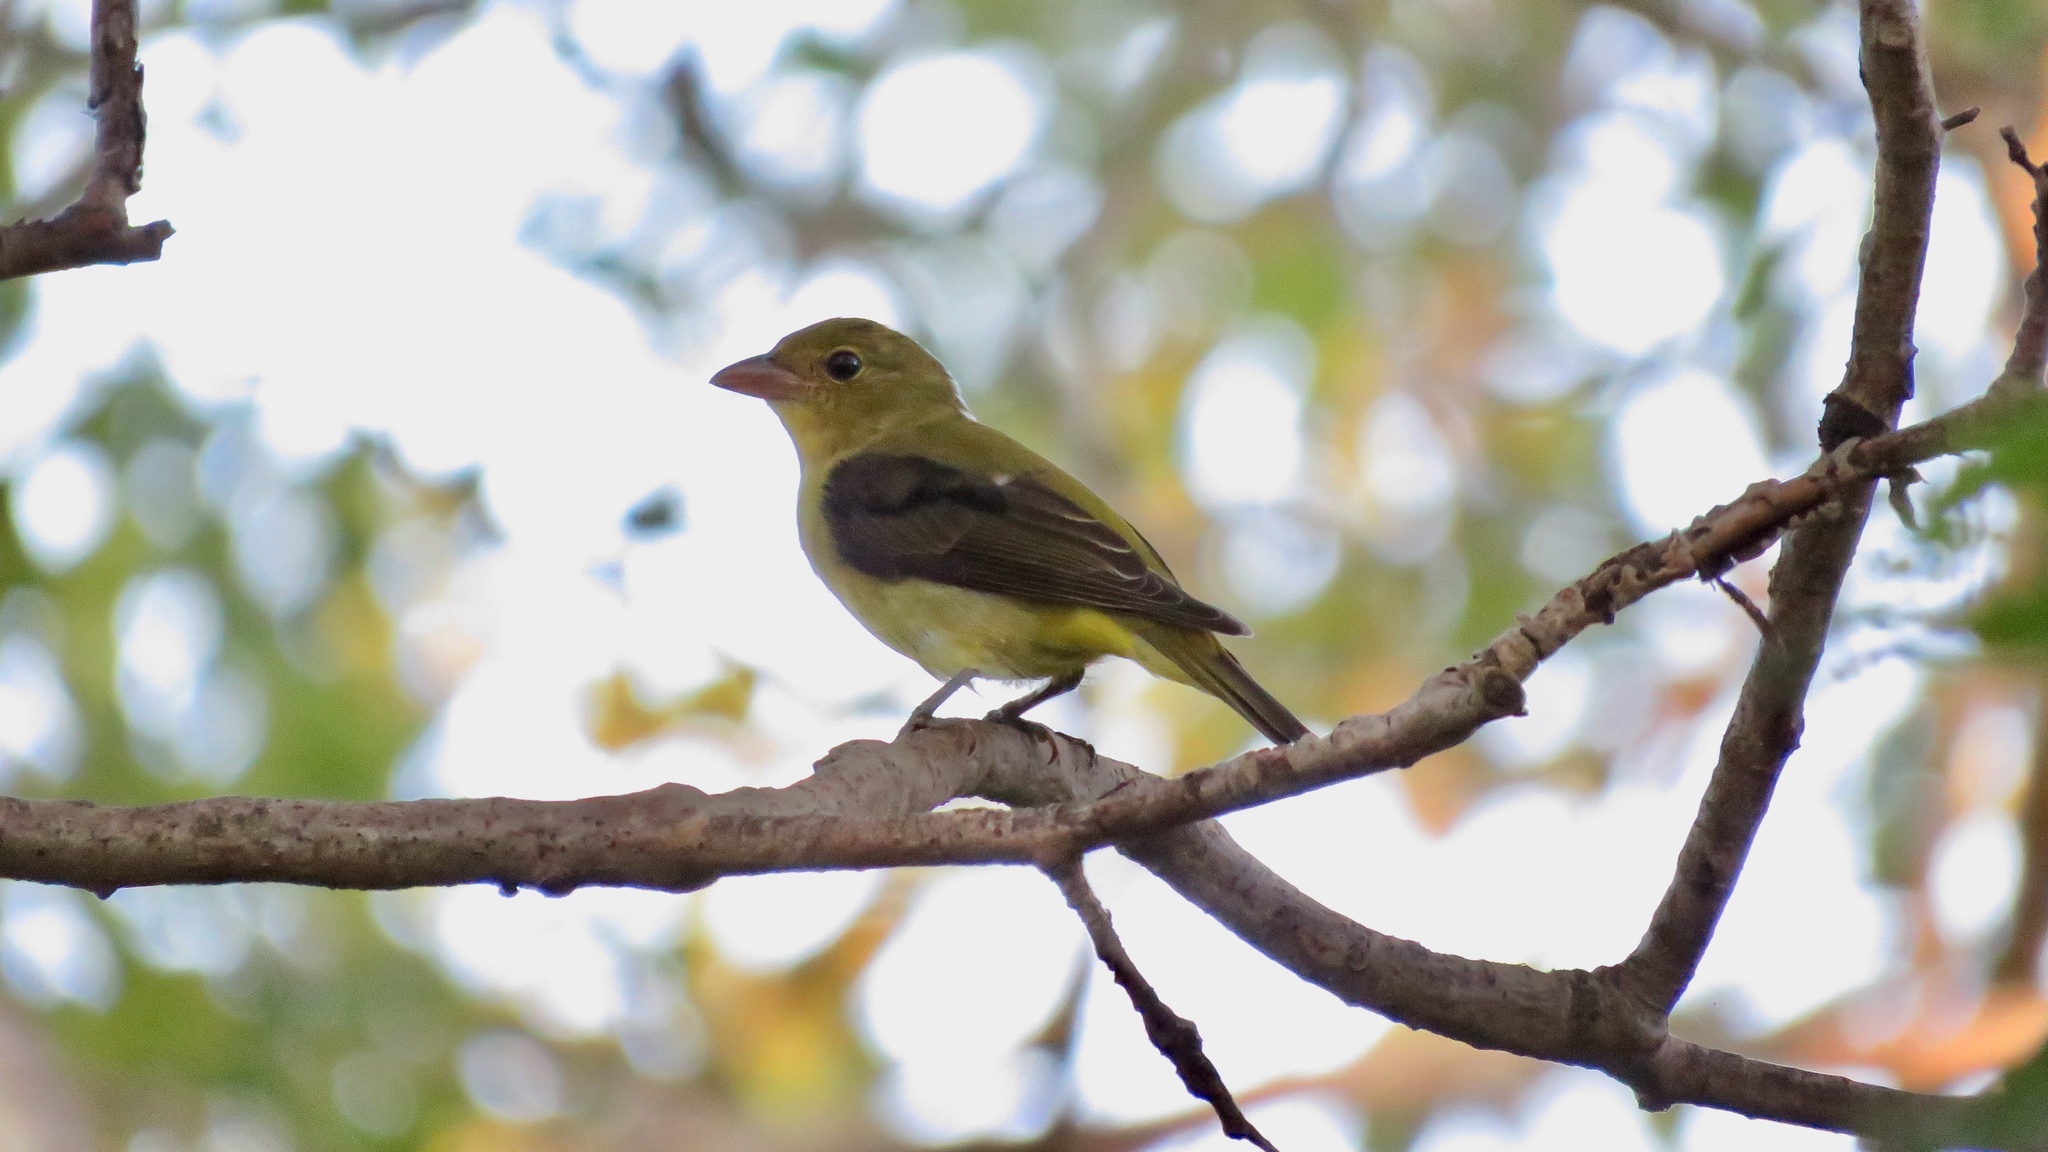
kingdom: Animalia
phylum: Chordata
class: Aves
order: Passeriformes
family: Cardinalidae
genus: Piranga
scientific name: Piranga olivacea
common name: Scarlet tanager
